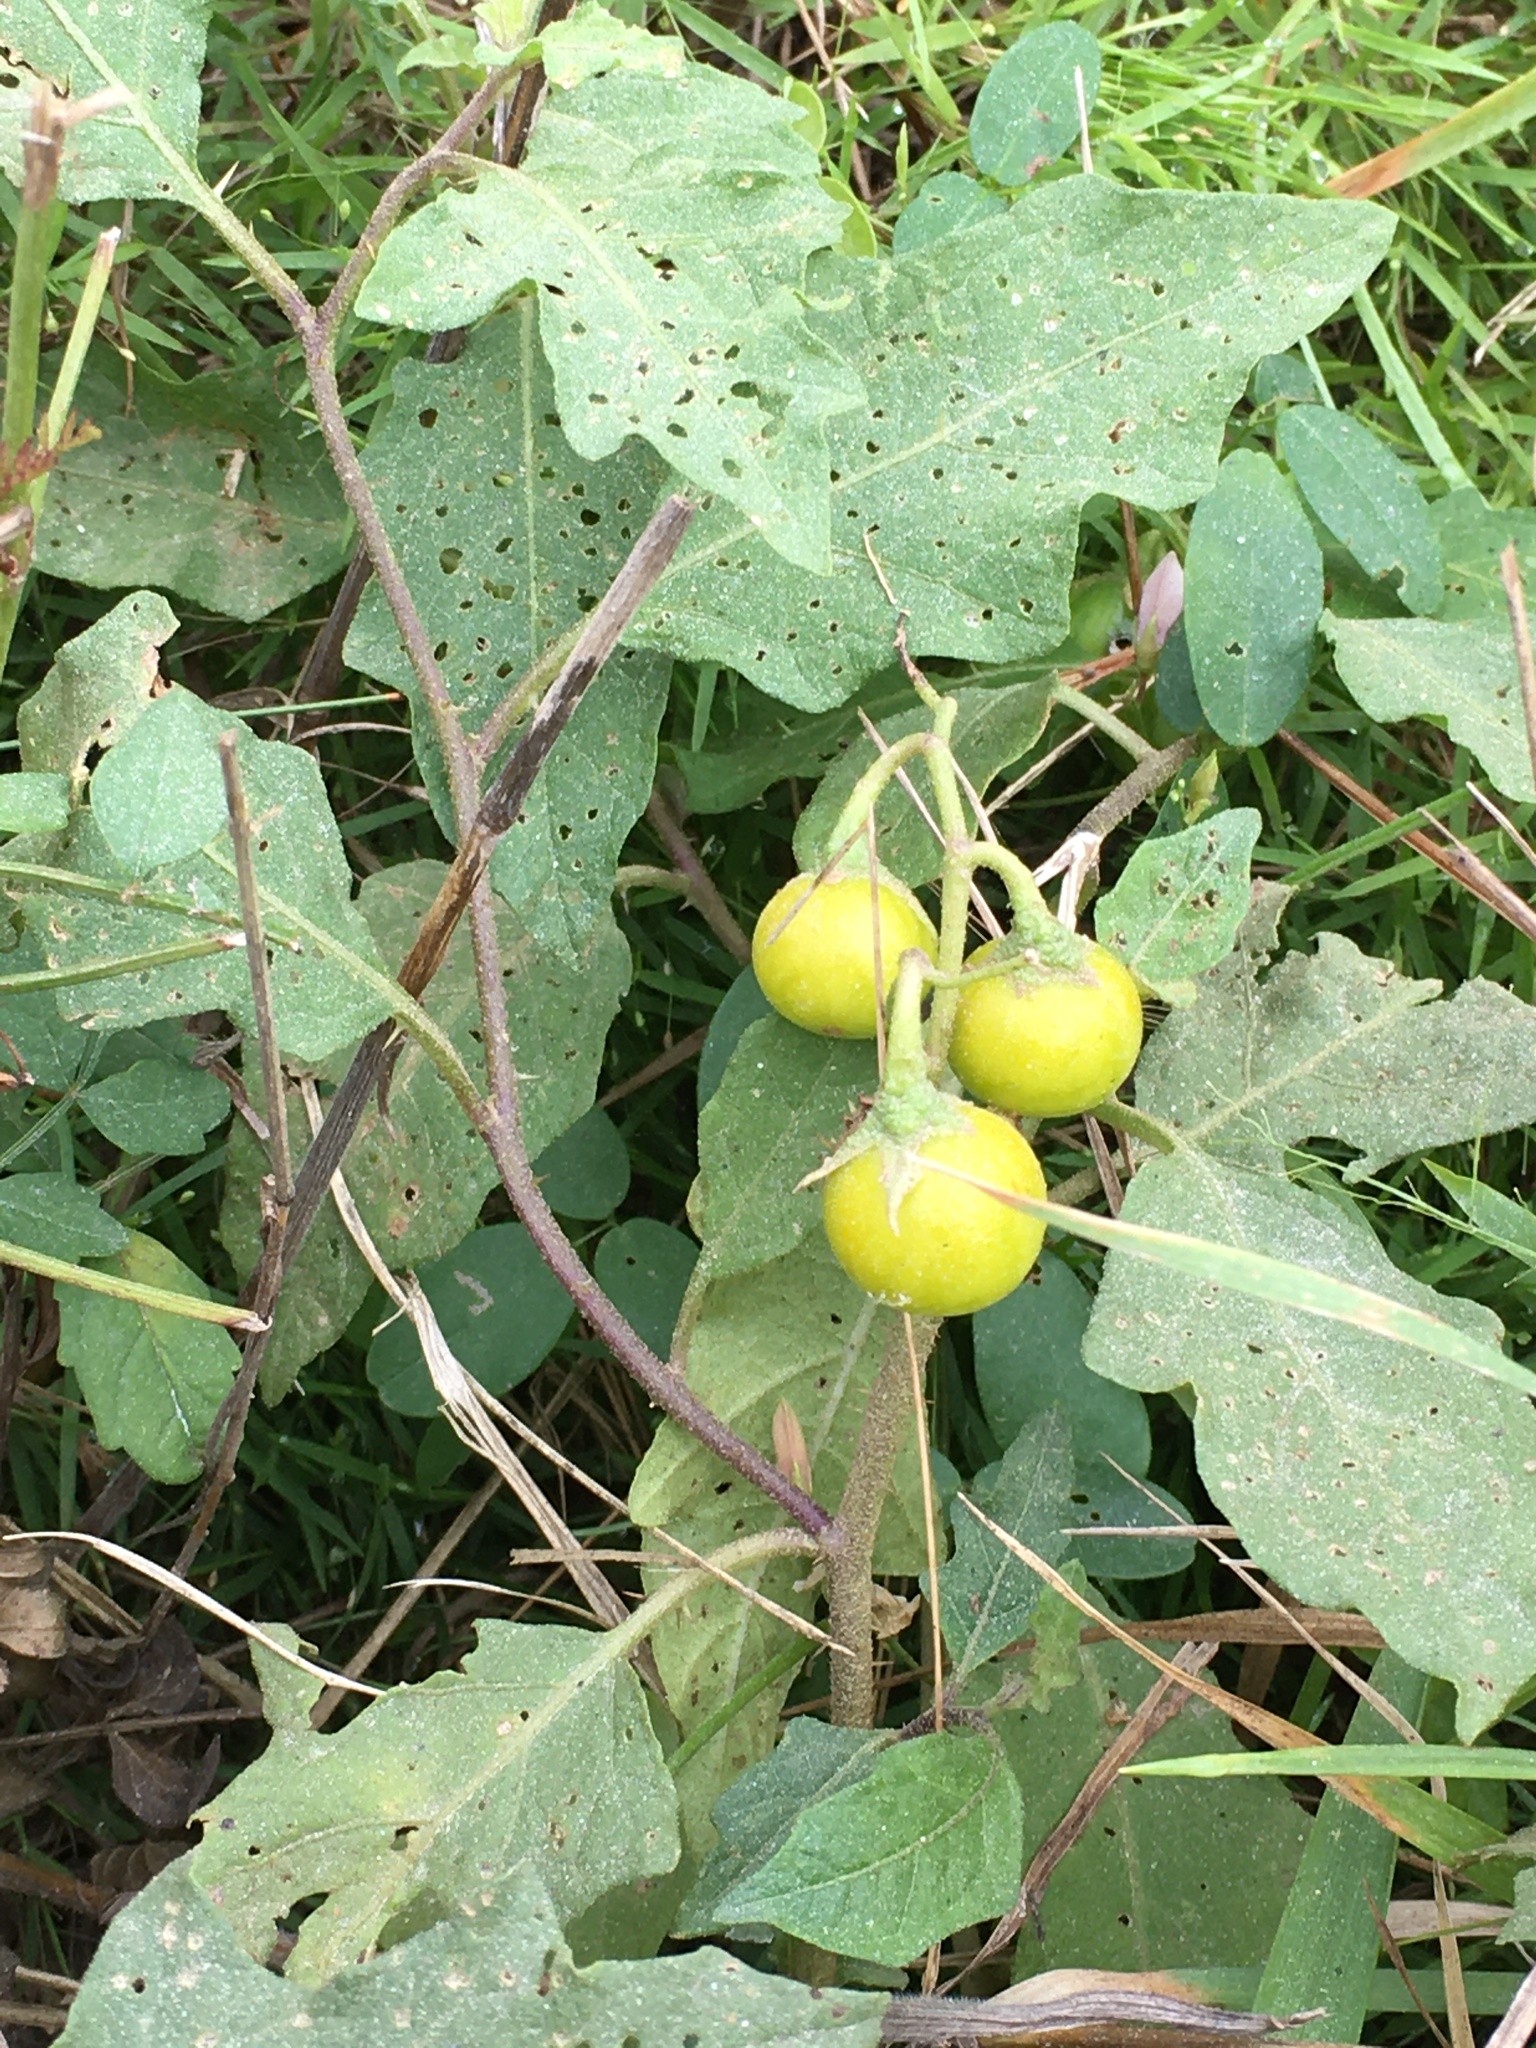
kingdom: Plantae
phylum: Tracheophyta
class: Magnoliopsida
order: Solanales
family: Solanaceae
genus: Solanum
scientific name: Solanum carolinense
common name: Horse-nettle
